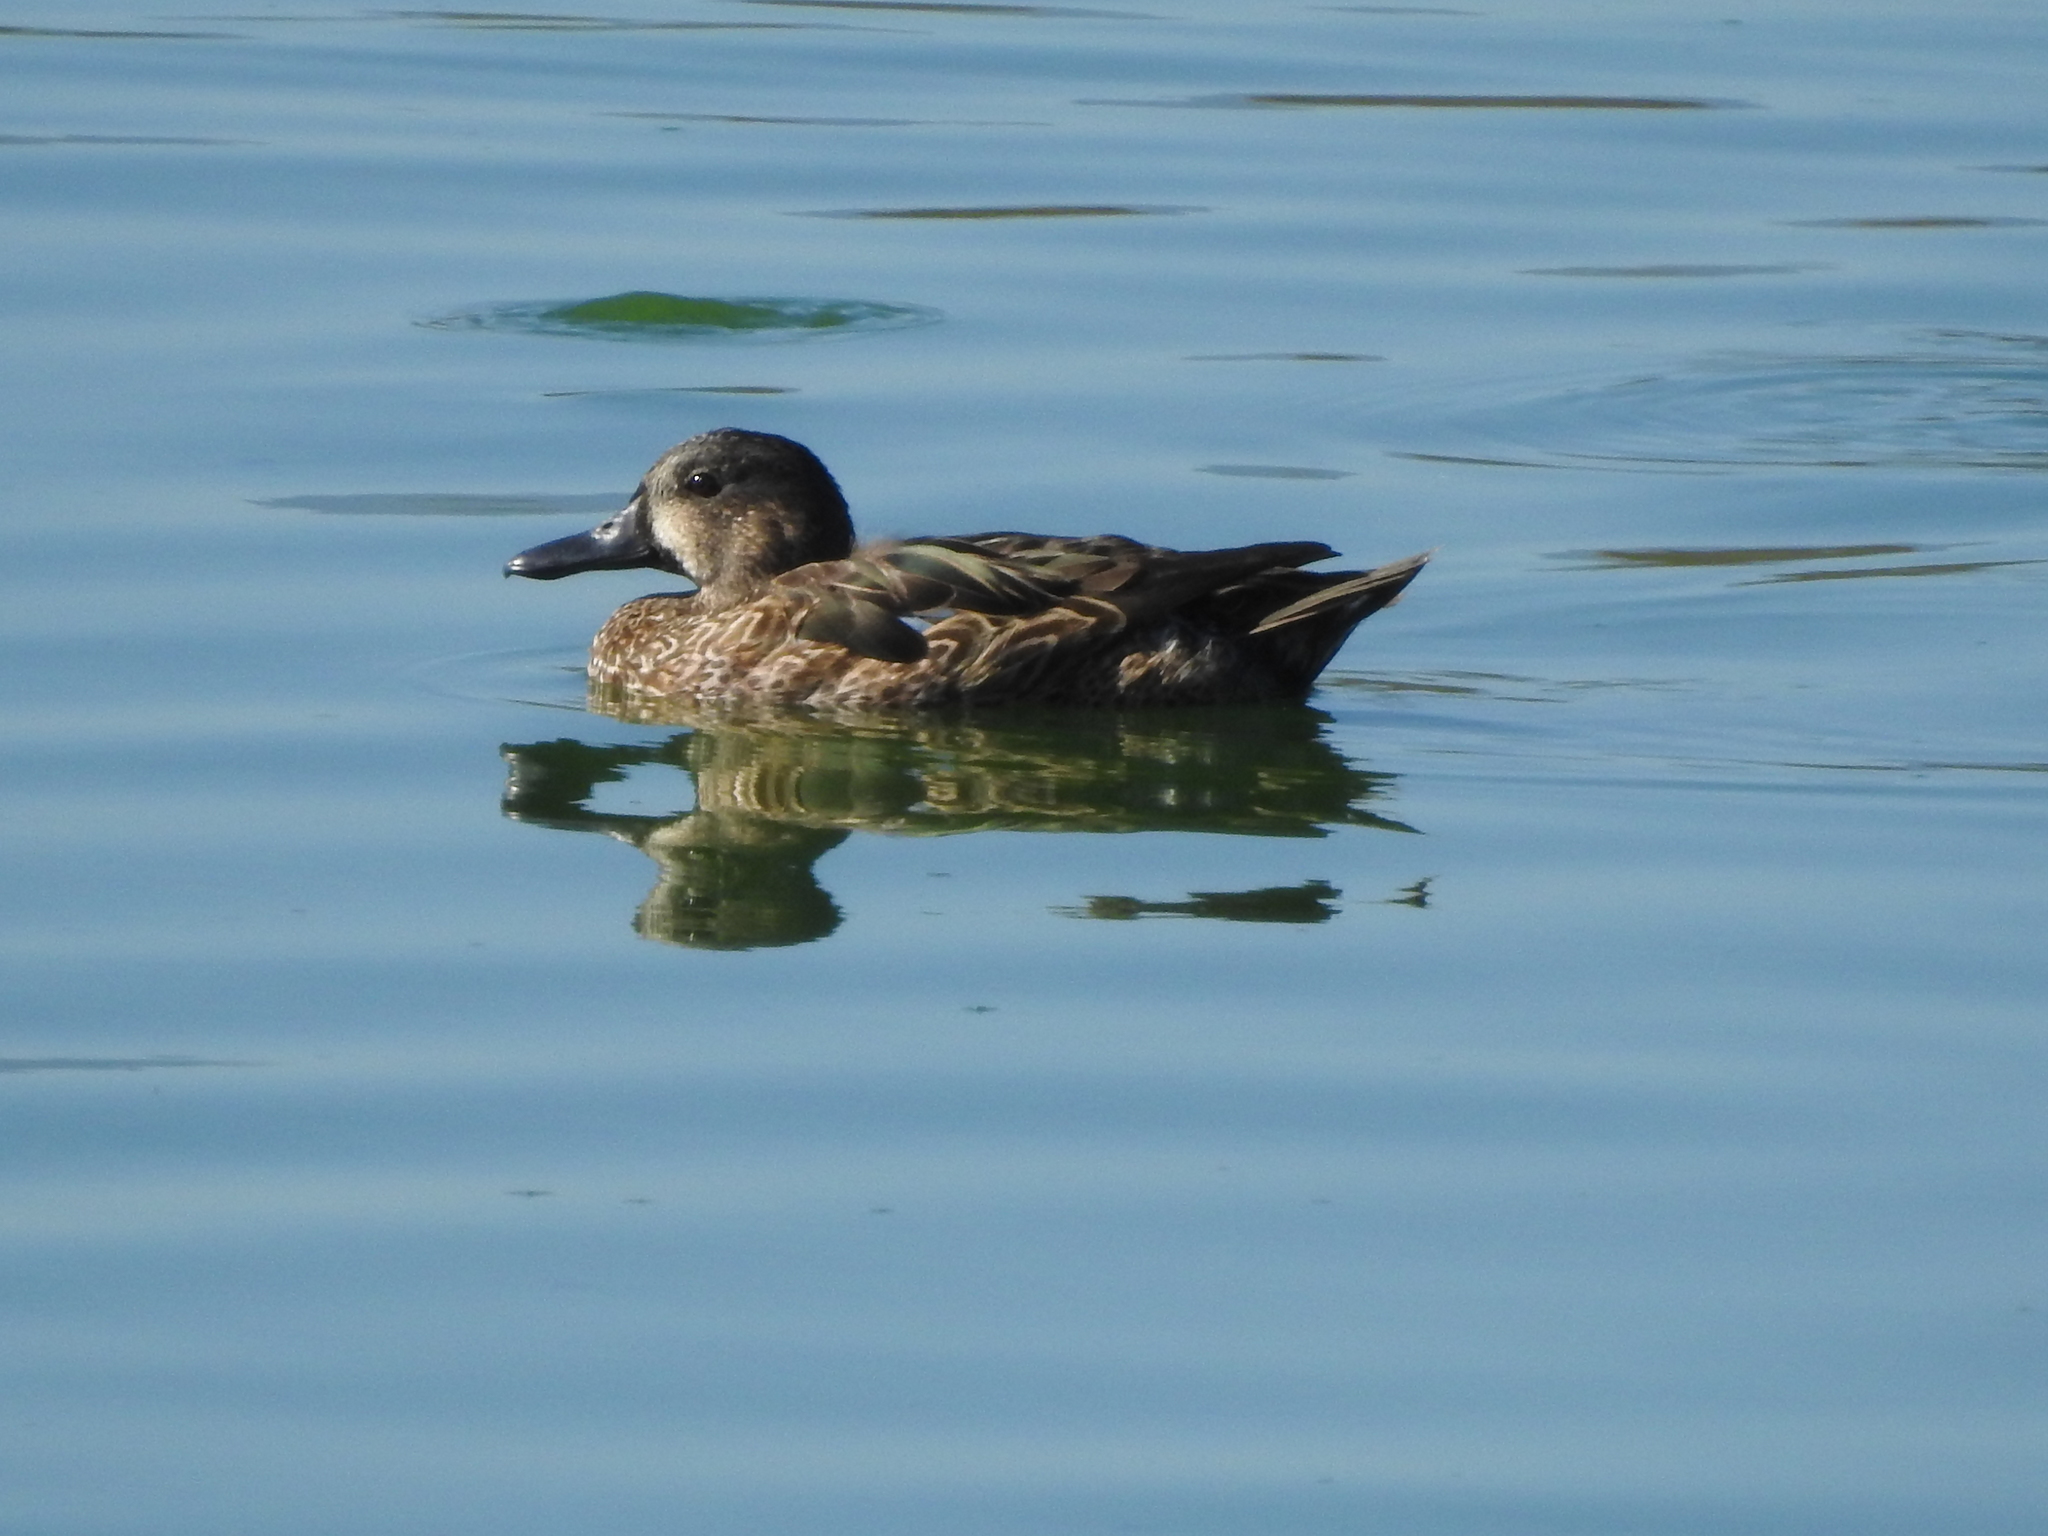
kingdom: Animalia
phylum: Chordata
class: Aves
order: Anseriformes
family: Anatidae
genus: Spatula
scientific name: Spatula discors
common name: Blue-winged teal
